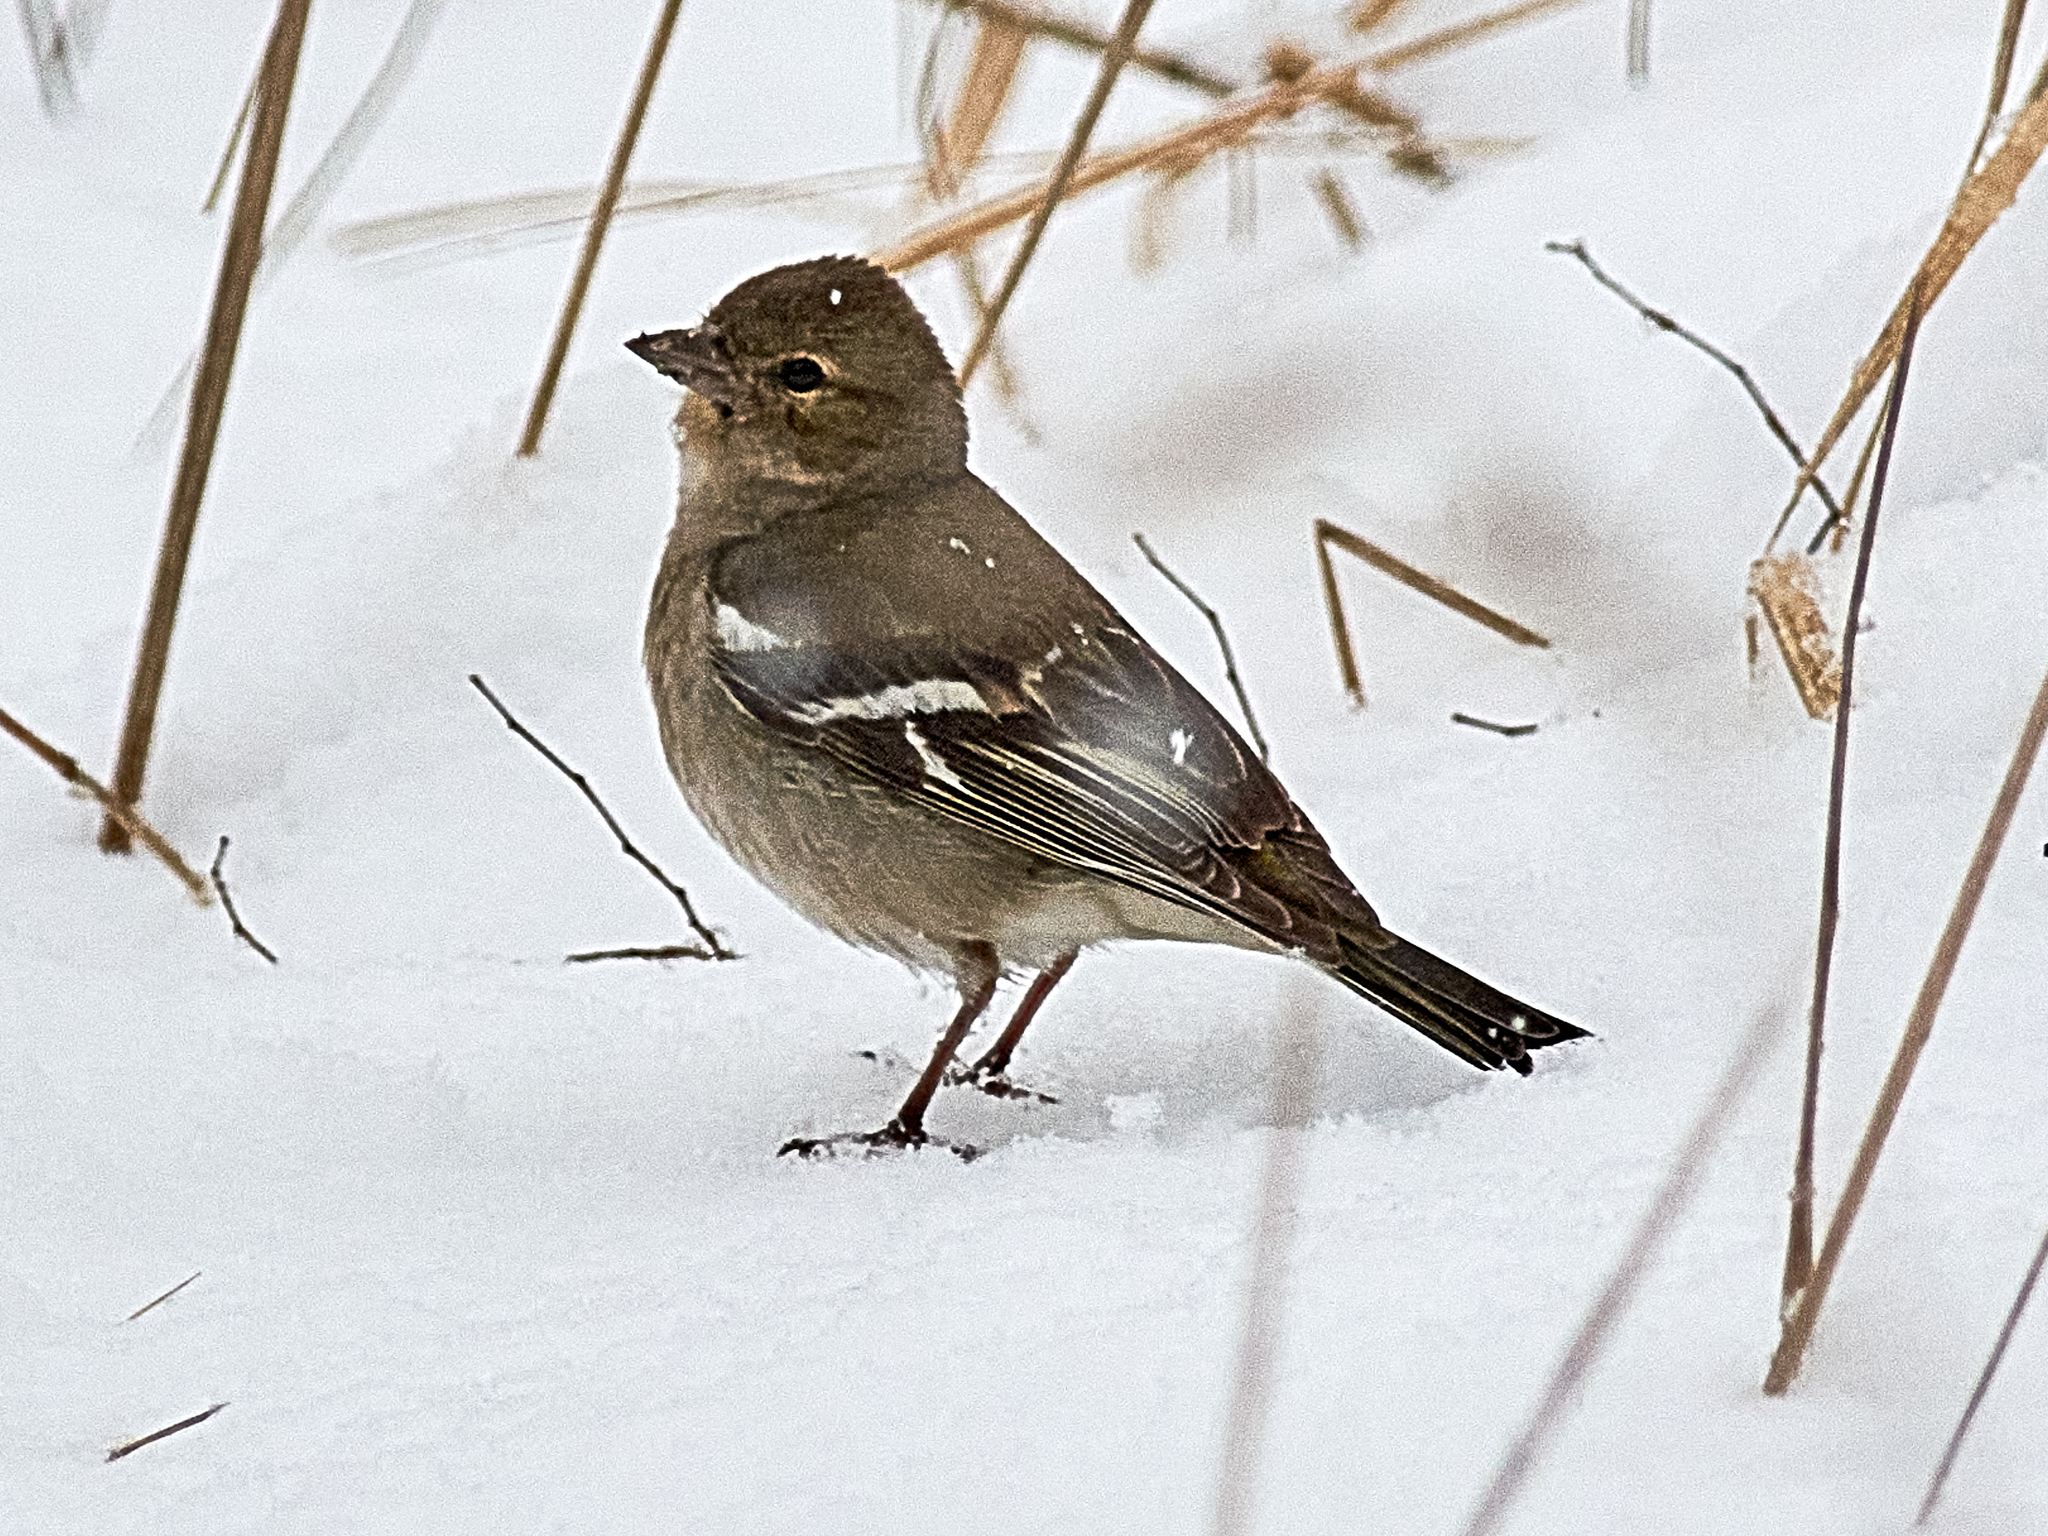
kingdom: Animalia
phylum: Chordata
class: Aves
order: Passeriformes
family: Fringillidae
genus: Fringilla
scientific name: Fringilla coelebs
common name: Common chaffinch
